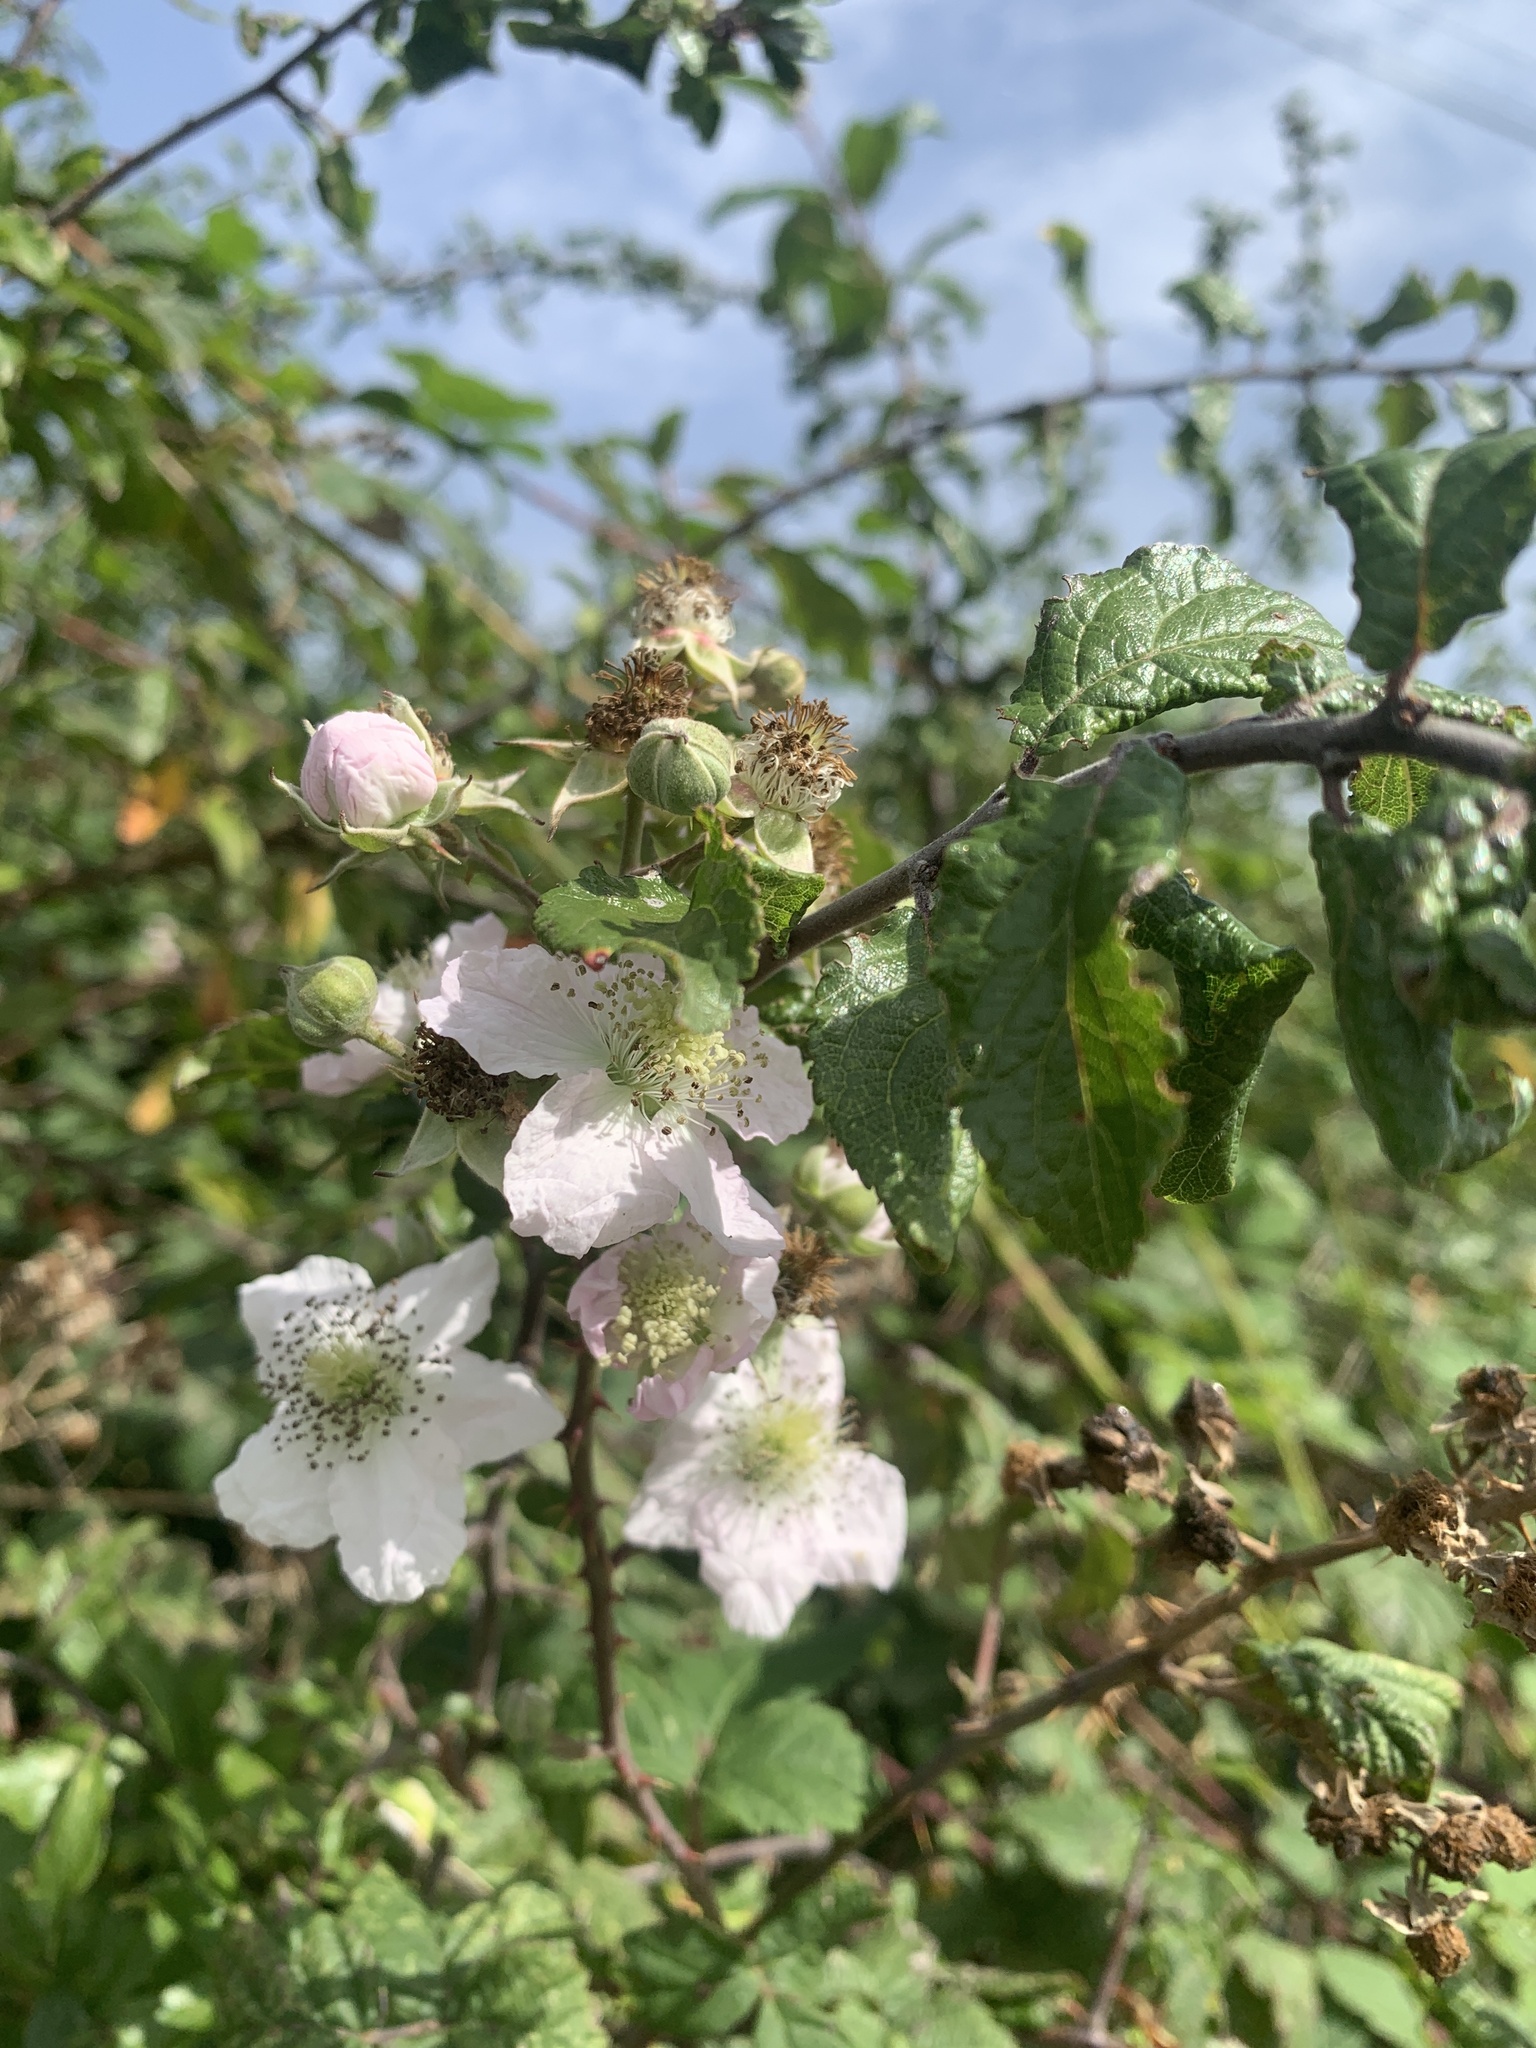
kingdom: Plantae
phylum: Tracheophyta
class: Magnoliopsida
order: Rosales
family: Rosaceae
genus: Rubus
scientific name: Rubus fruticosus
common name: Blackberry, bramble
